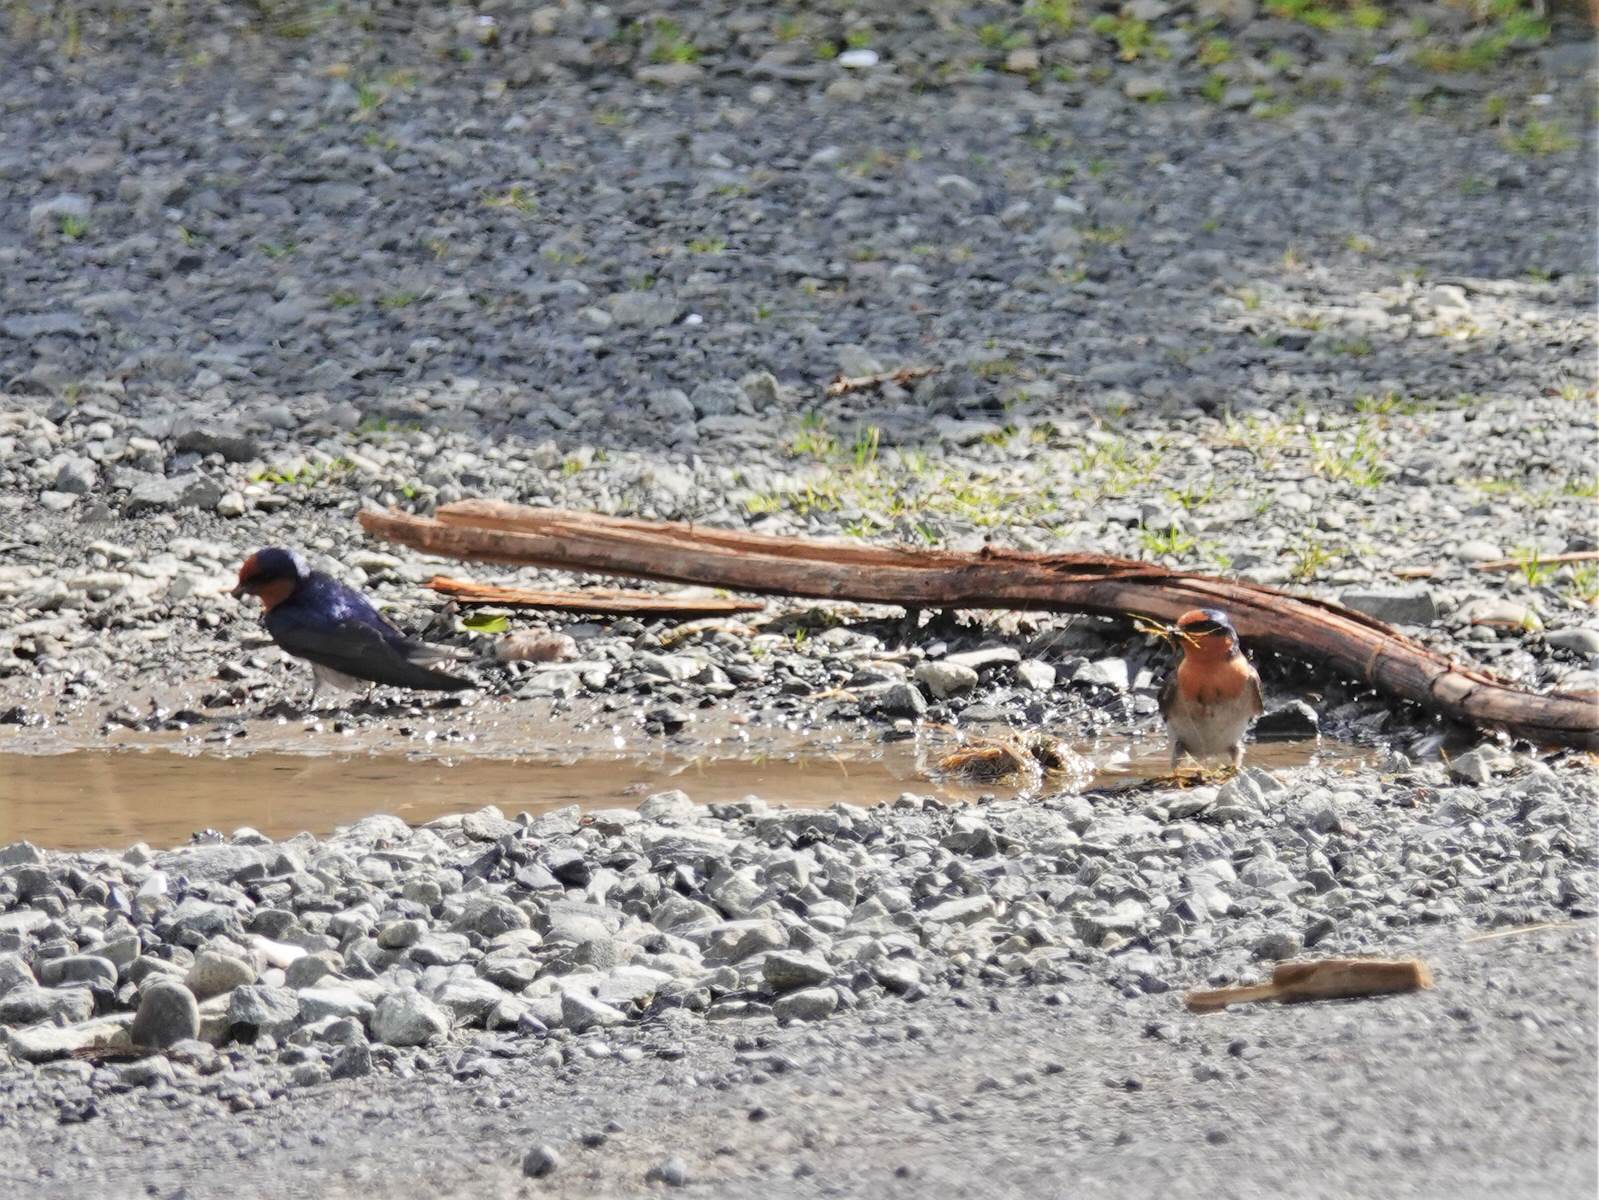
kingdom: Animalia
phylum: Chordata
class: Aves
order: Passeriformes
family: Hirundinidae
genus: Hirundo
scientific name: Hirundo neoxena
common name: Welcome swallow
